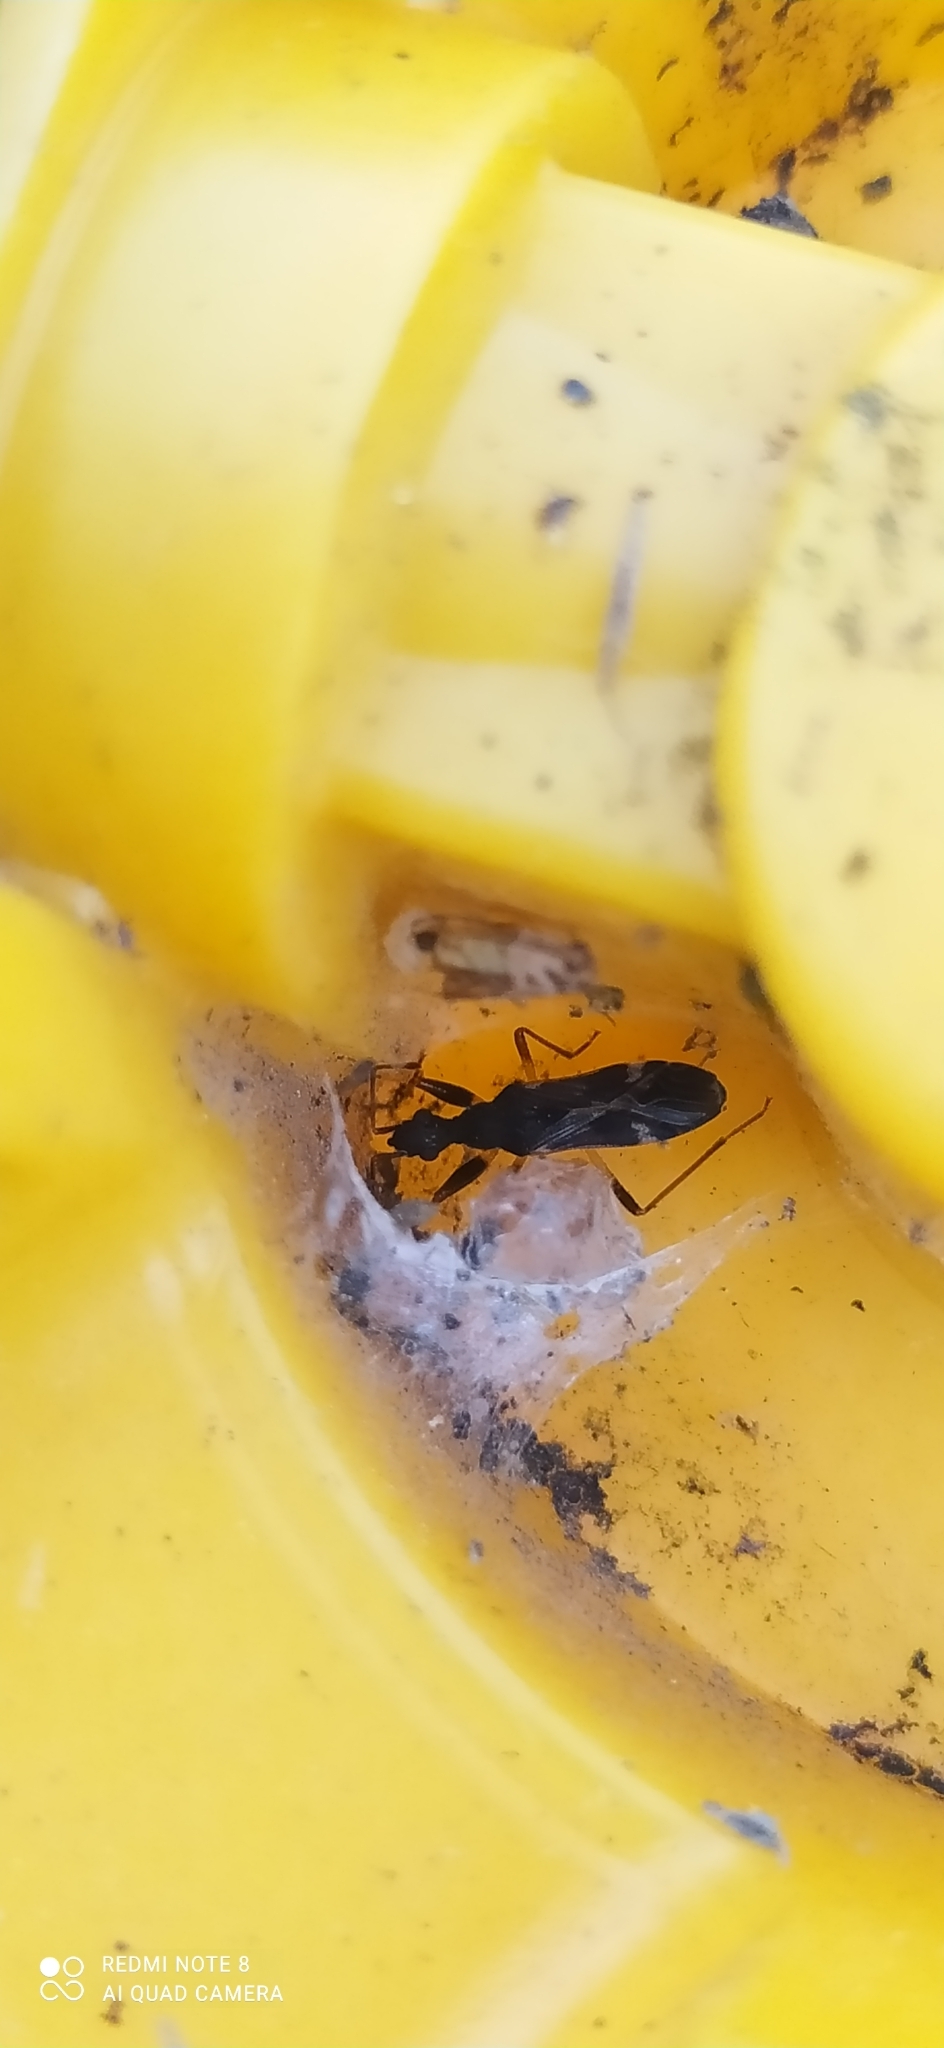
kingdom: Animalia
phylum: Arthropoda
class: Insecta
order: Hemiptera
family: Rhyparochromidae
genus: Baranowskiobius
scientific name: Baranowskiobius bimaculatus
